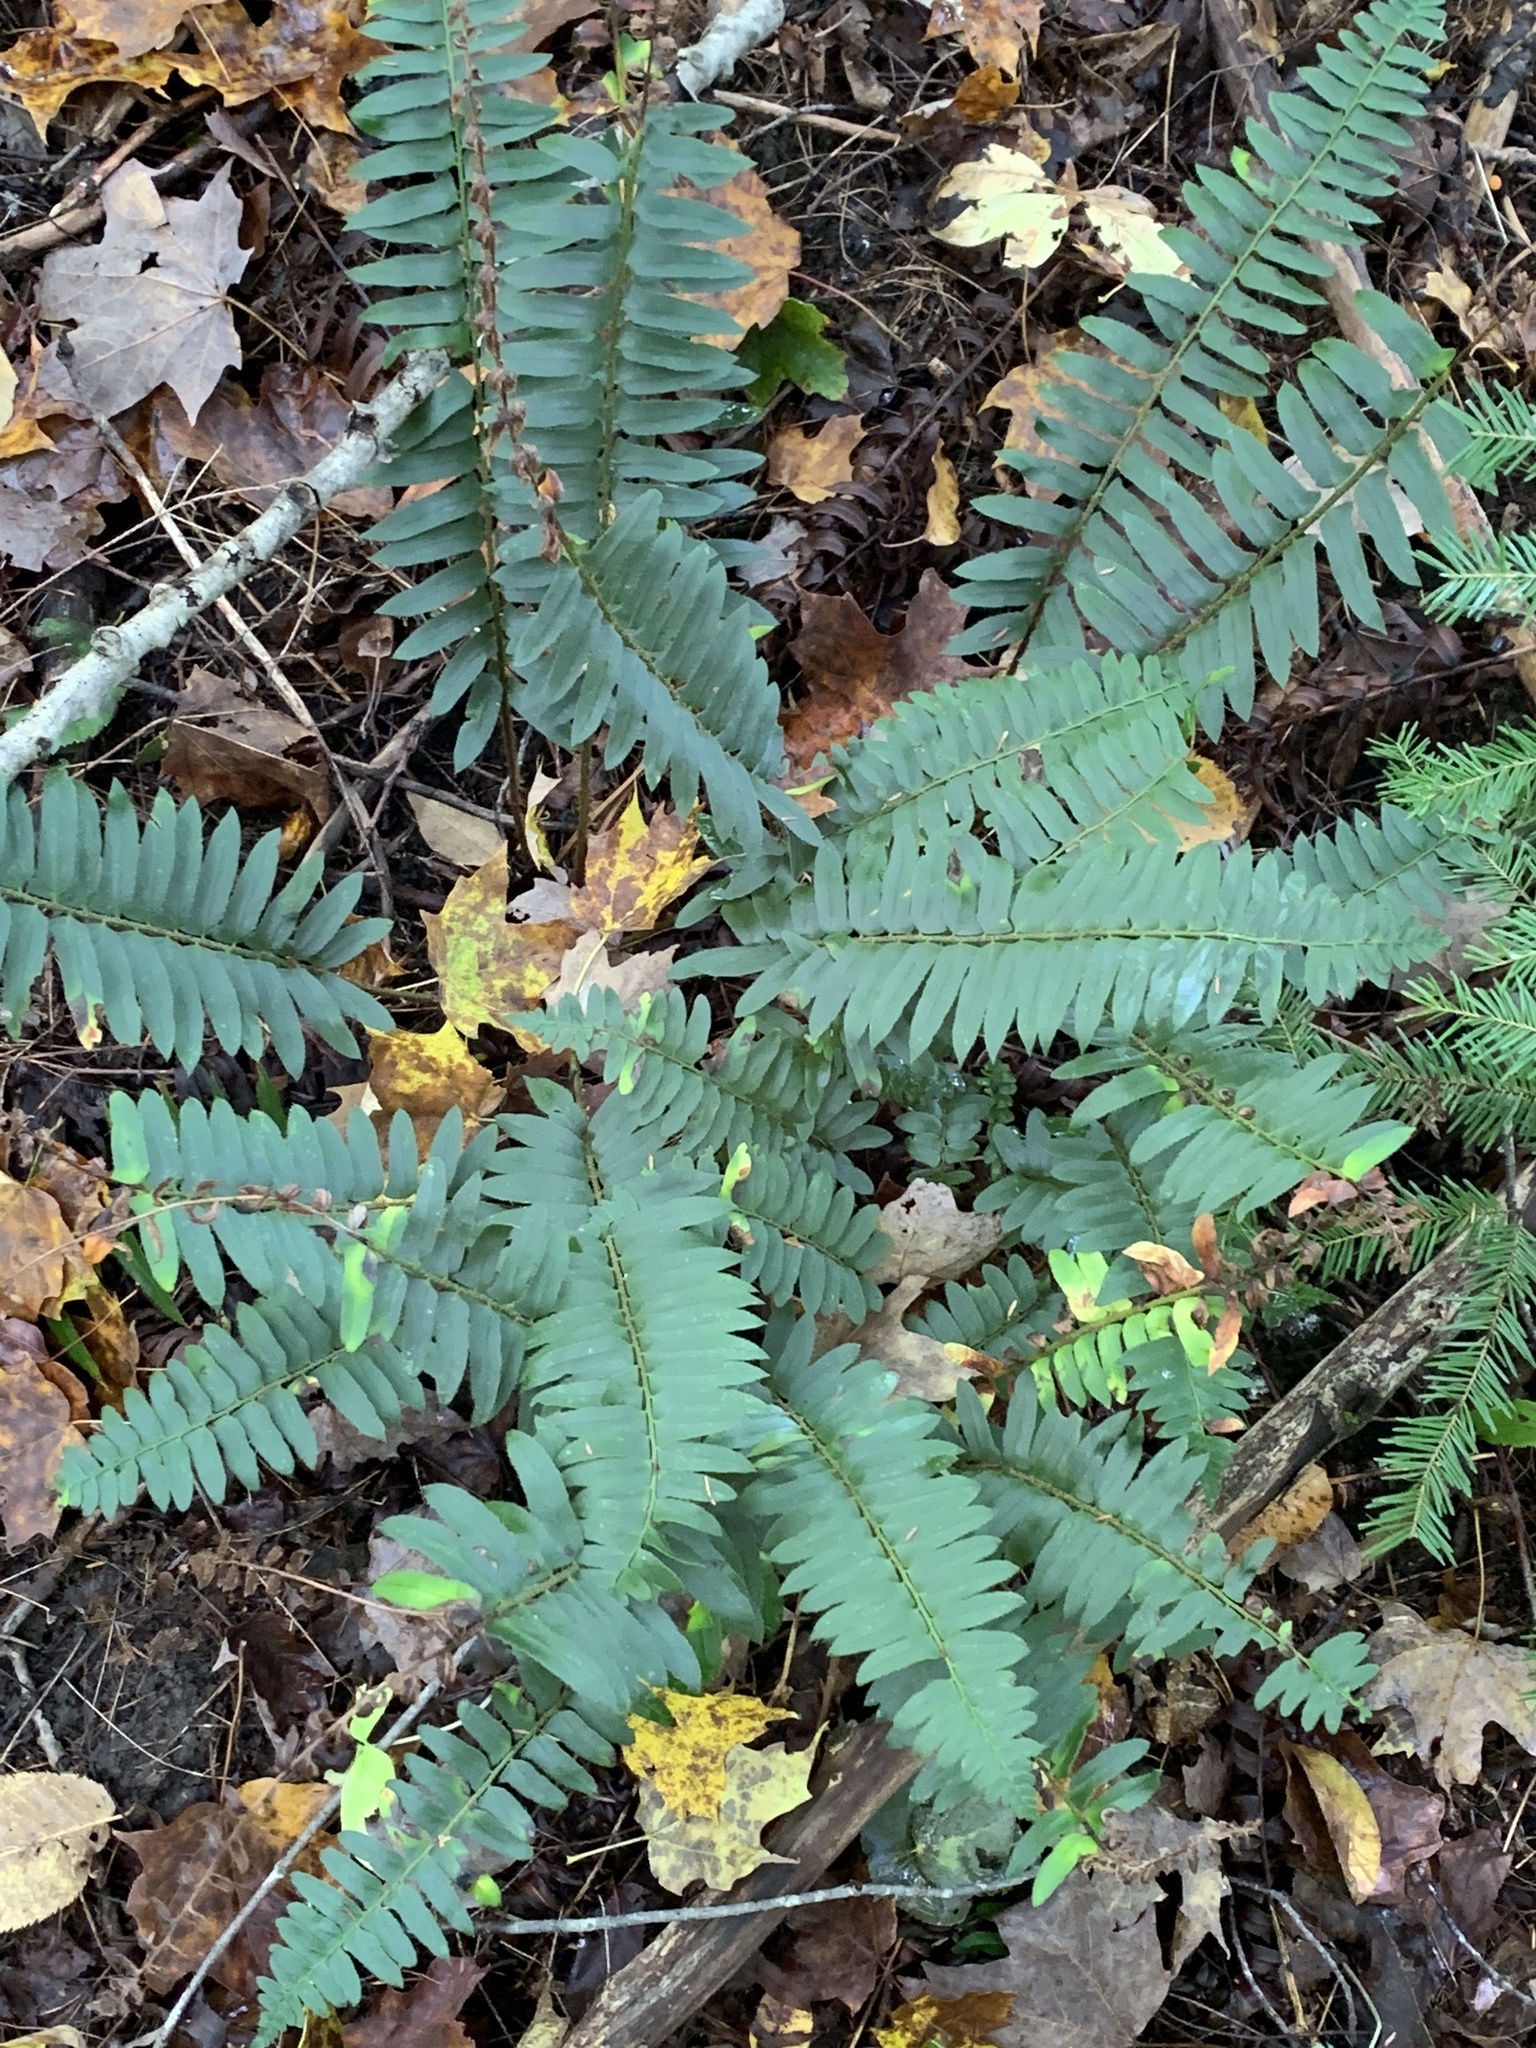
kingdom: Plantae
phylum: Tracheophyta
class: Polypodiopsida
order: Polypodiales
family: Dryopteridaceae
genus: Polystichum
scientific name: Polystichum acrostichoides
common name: Christmas fern
